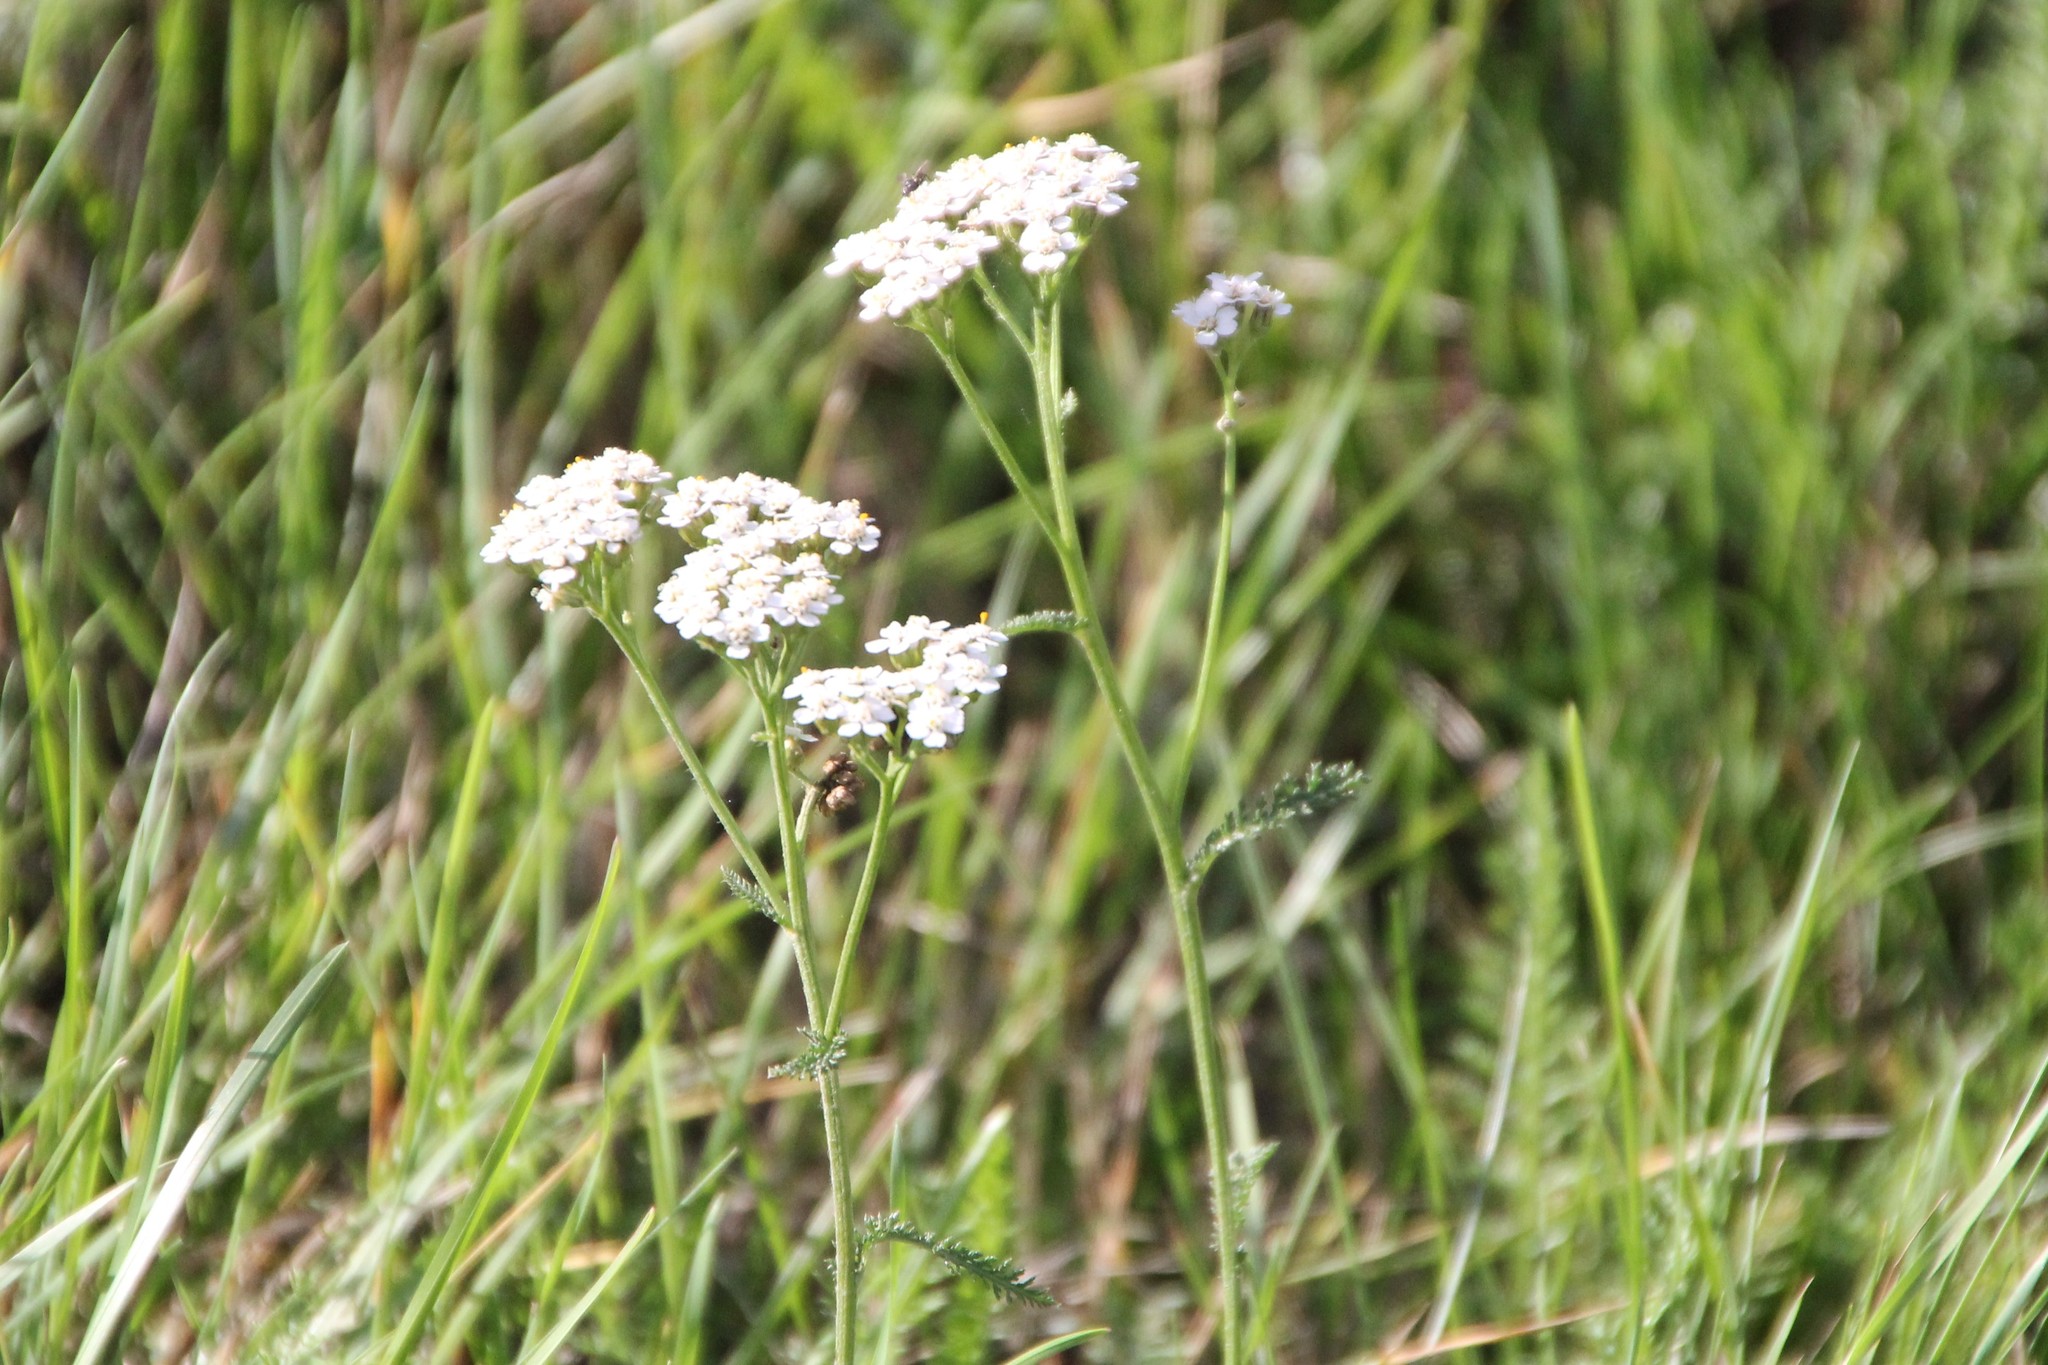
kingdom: Plantae
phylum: Tracheophyta
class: Magnoliopsida
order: Asterales
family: Asteraceae
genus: Achillea
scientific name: Achillea millefolium
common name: Yarrow
